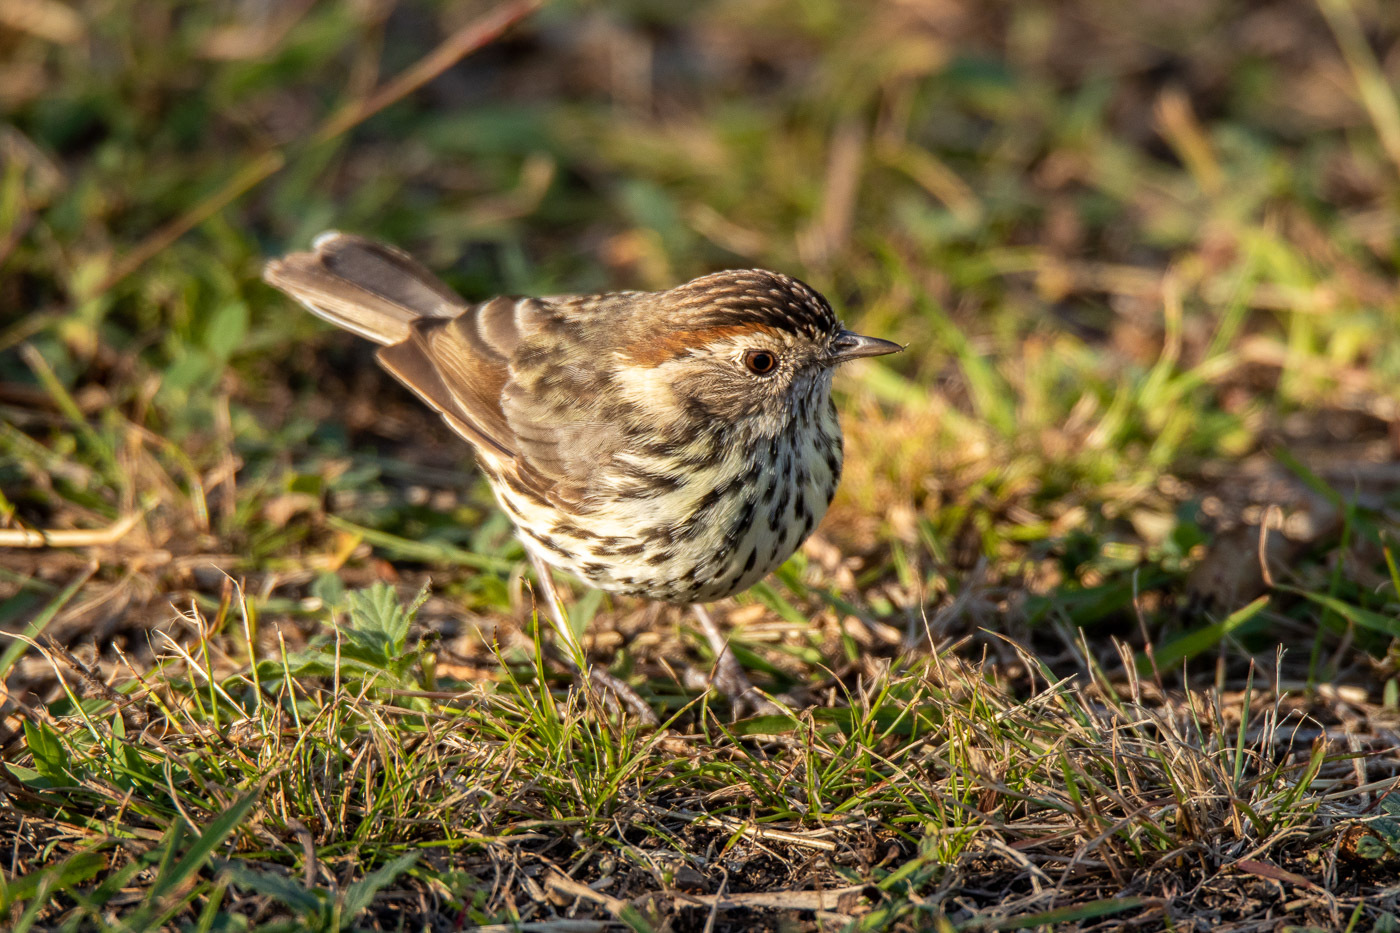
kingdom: Animalia
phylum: Chordata
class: Aves
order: Passeriformes
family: Acanthizidae
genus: Pyrrholaemus
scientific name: Pyrrholaemus sagittatus
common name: Speckled warbler
